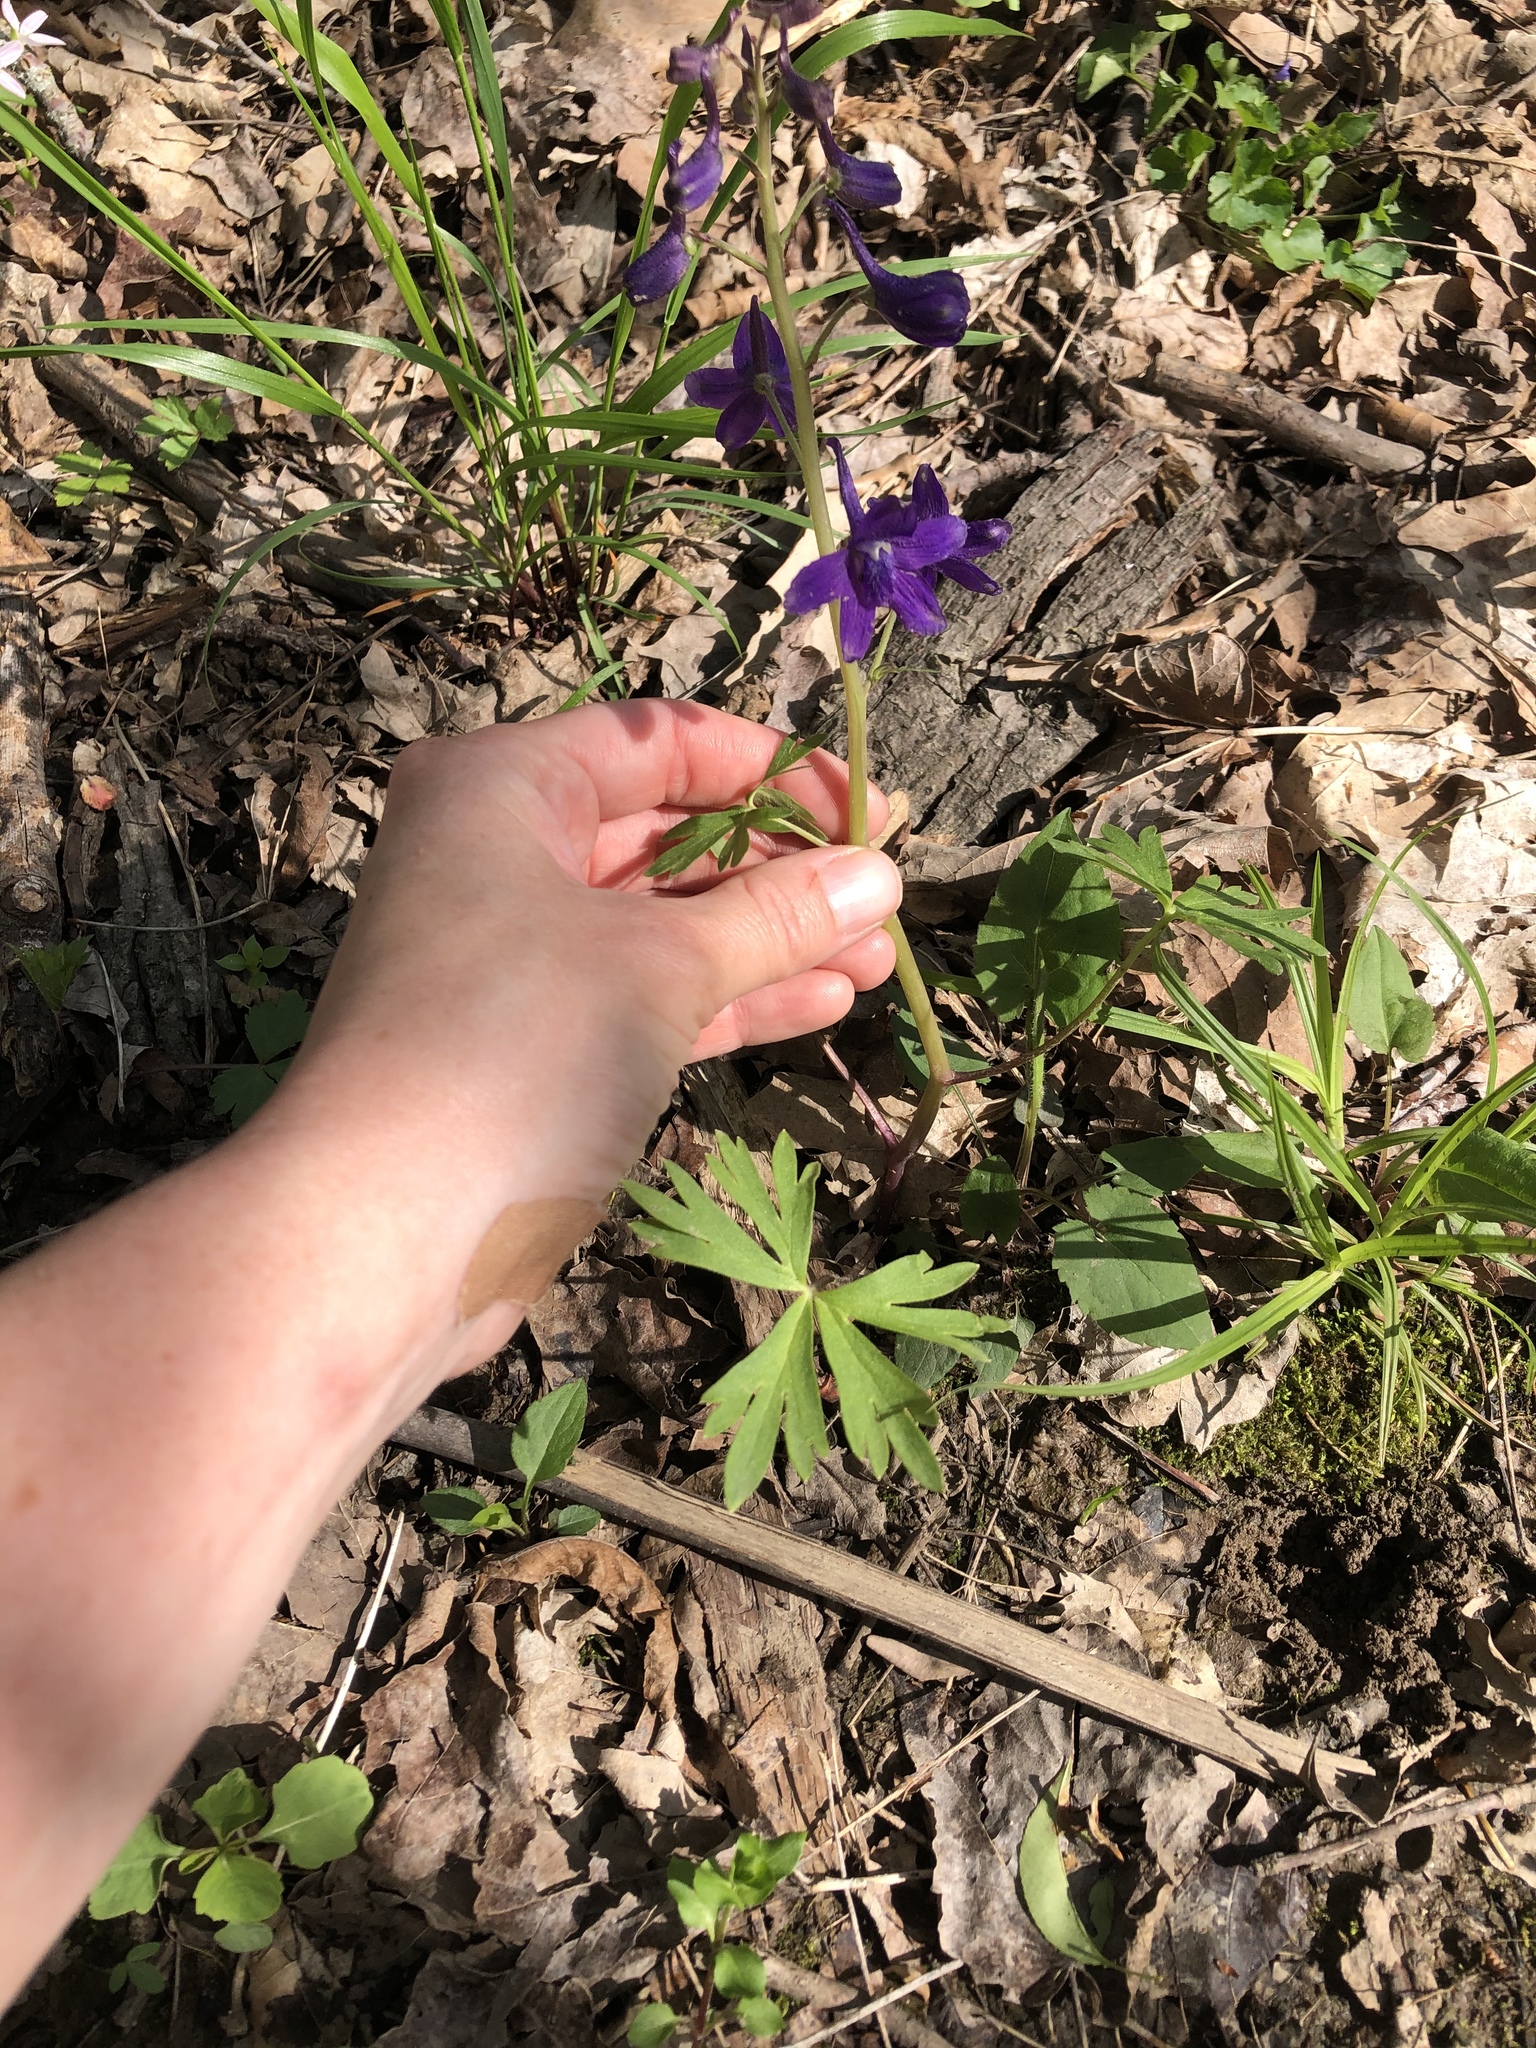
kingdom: Plantae
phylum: Tracheophyta
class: Magnoliopsida
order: Ranunculales
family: Ranunculaceae
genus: Delphinium
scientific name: Delphinium tricorne
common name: Dwarf larkspur
